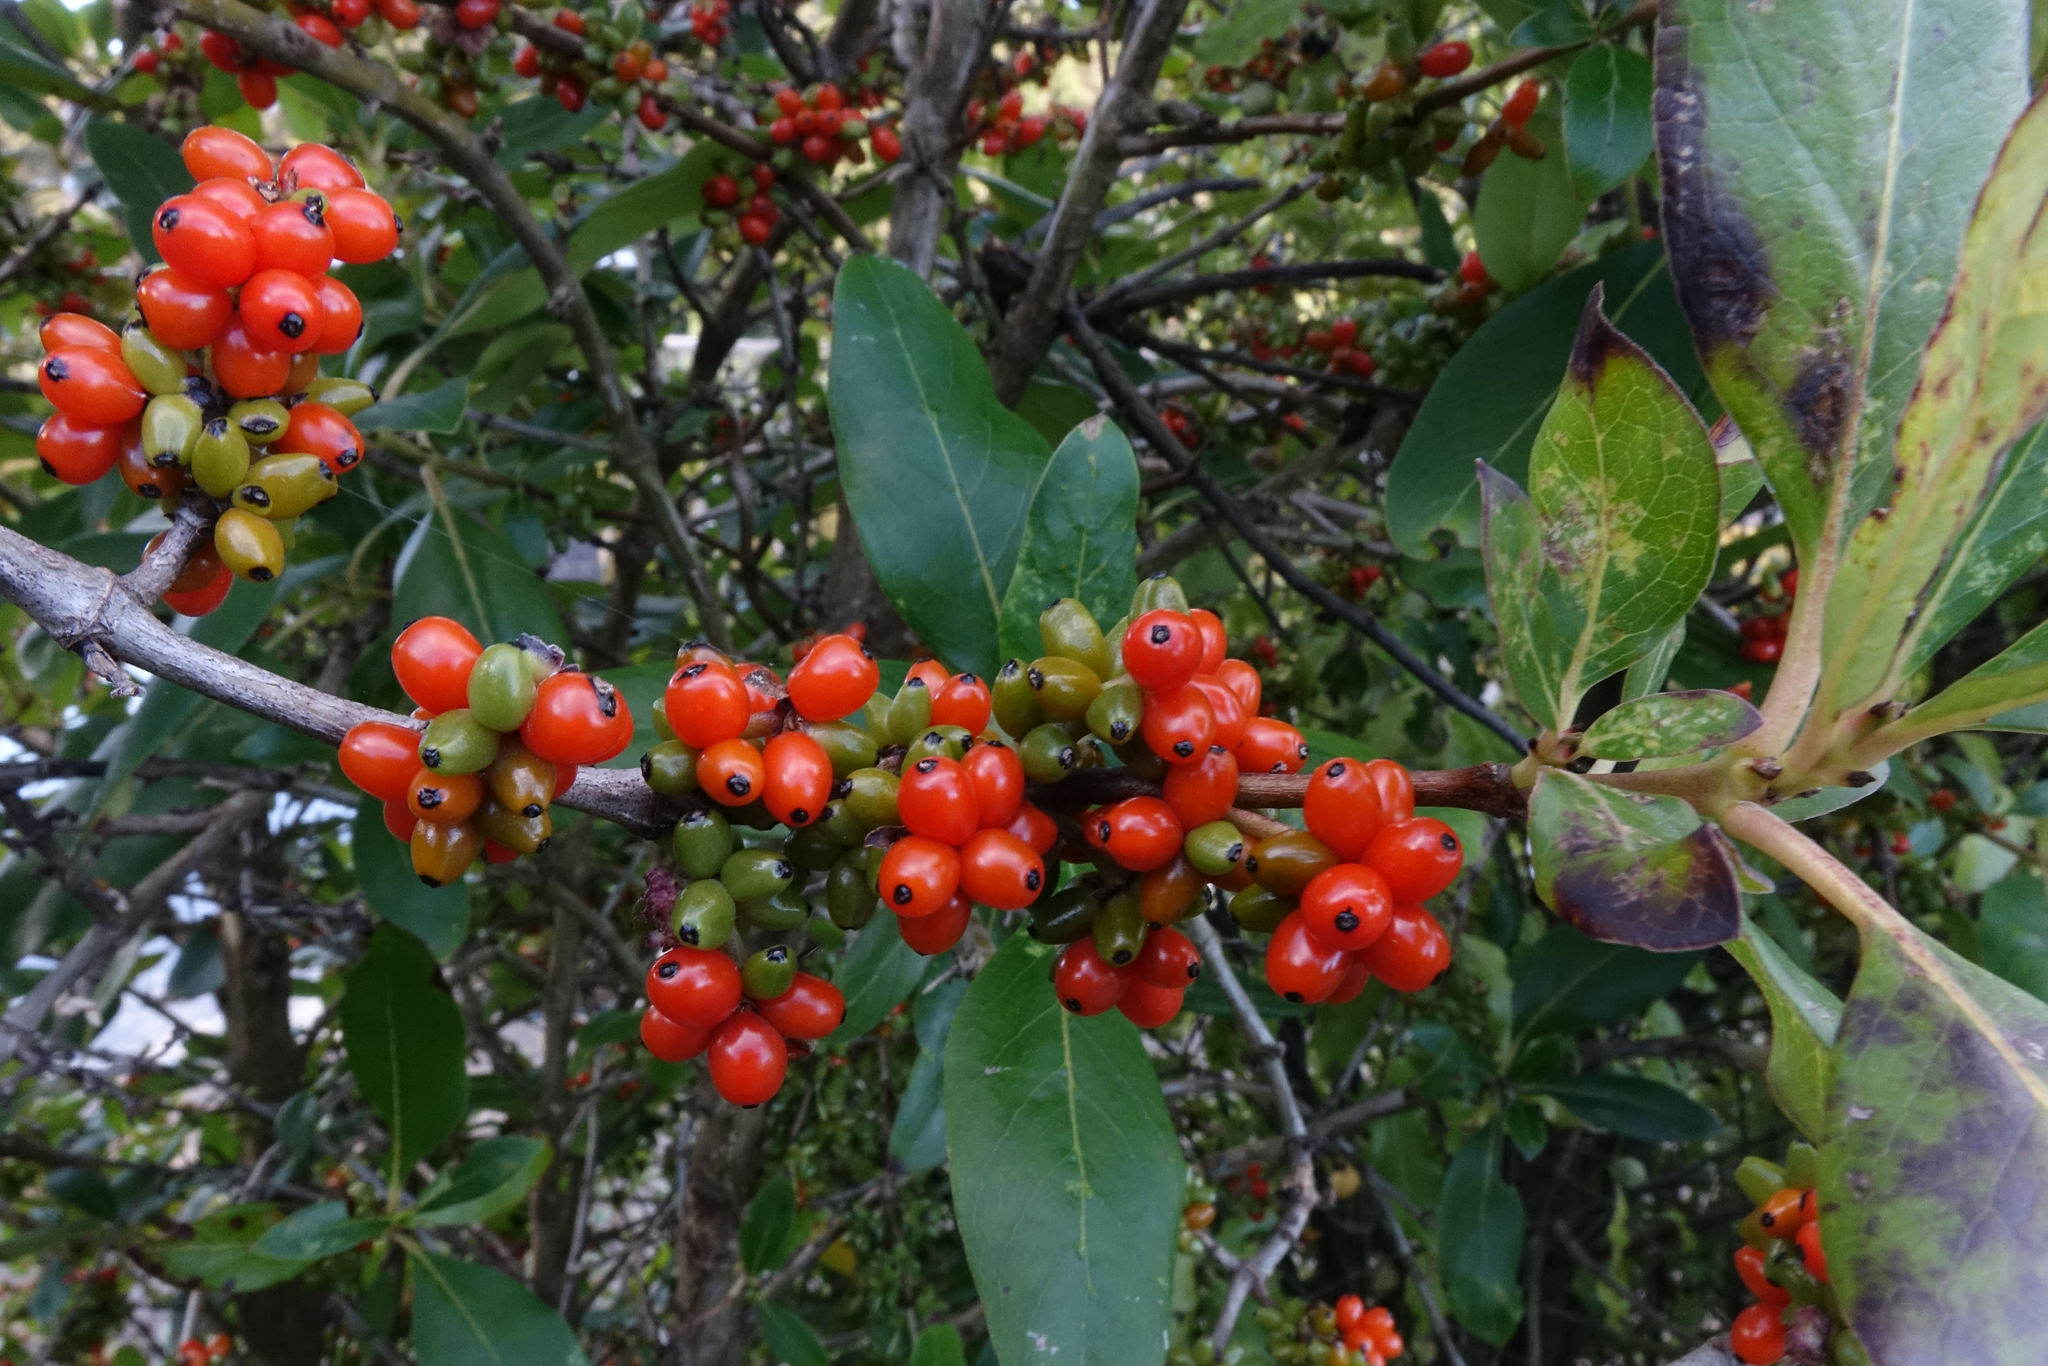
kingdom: Plantae
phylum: Tracheophyta
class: Magnoliopsida
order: Gentianales
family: Rubiaceae
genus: Coprosma
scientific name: Coprosma robusta
